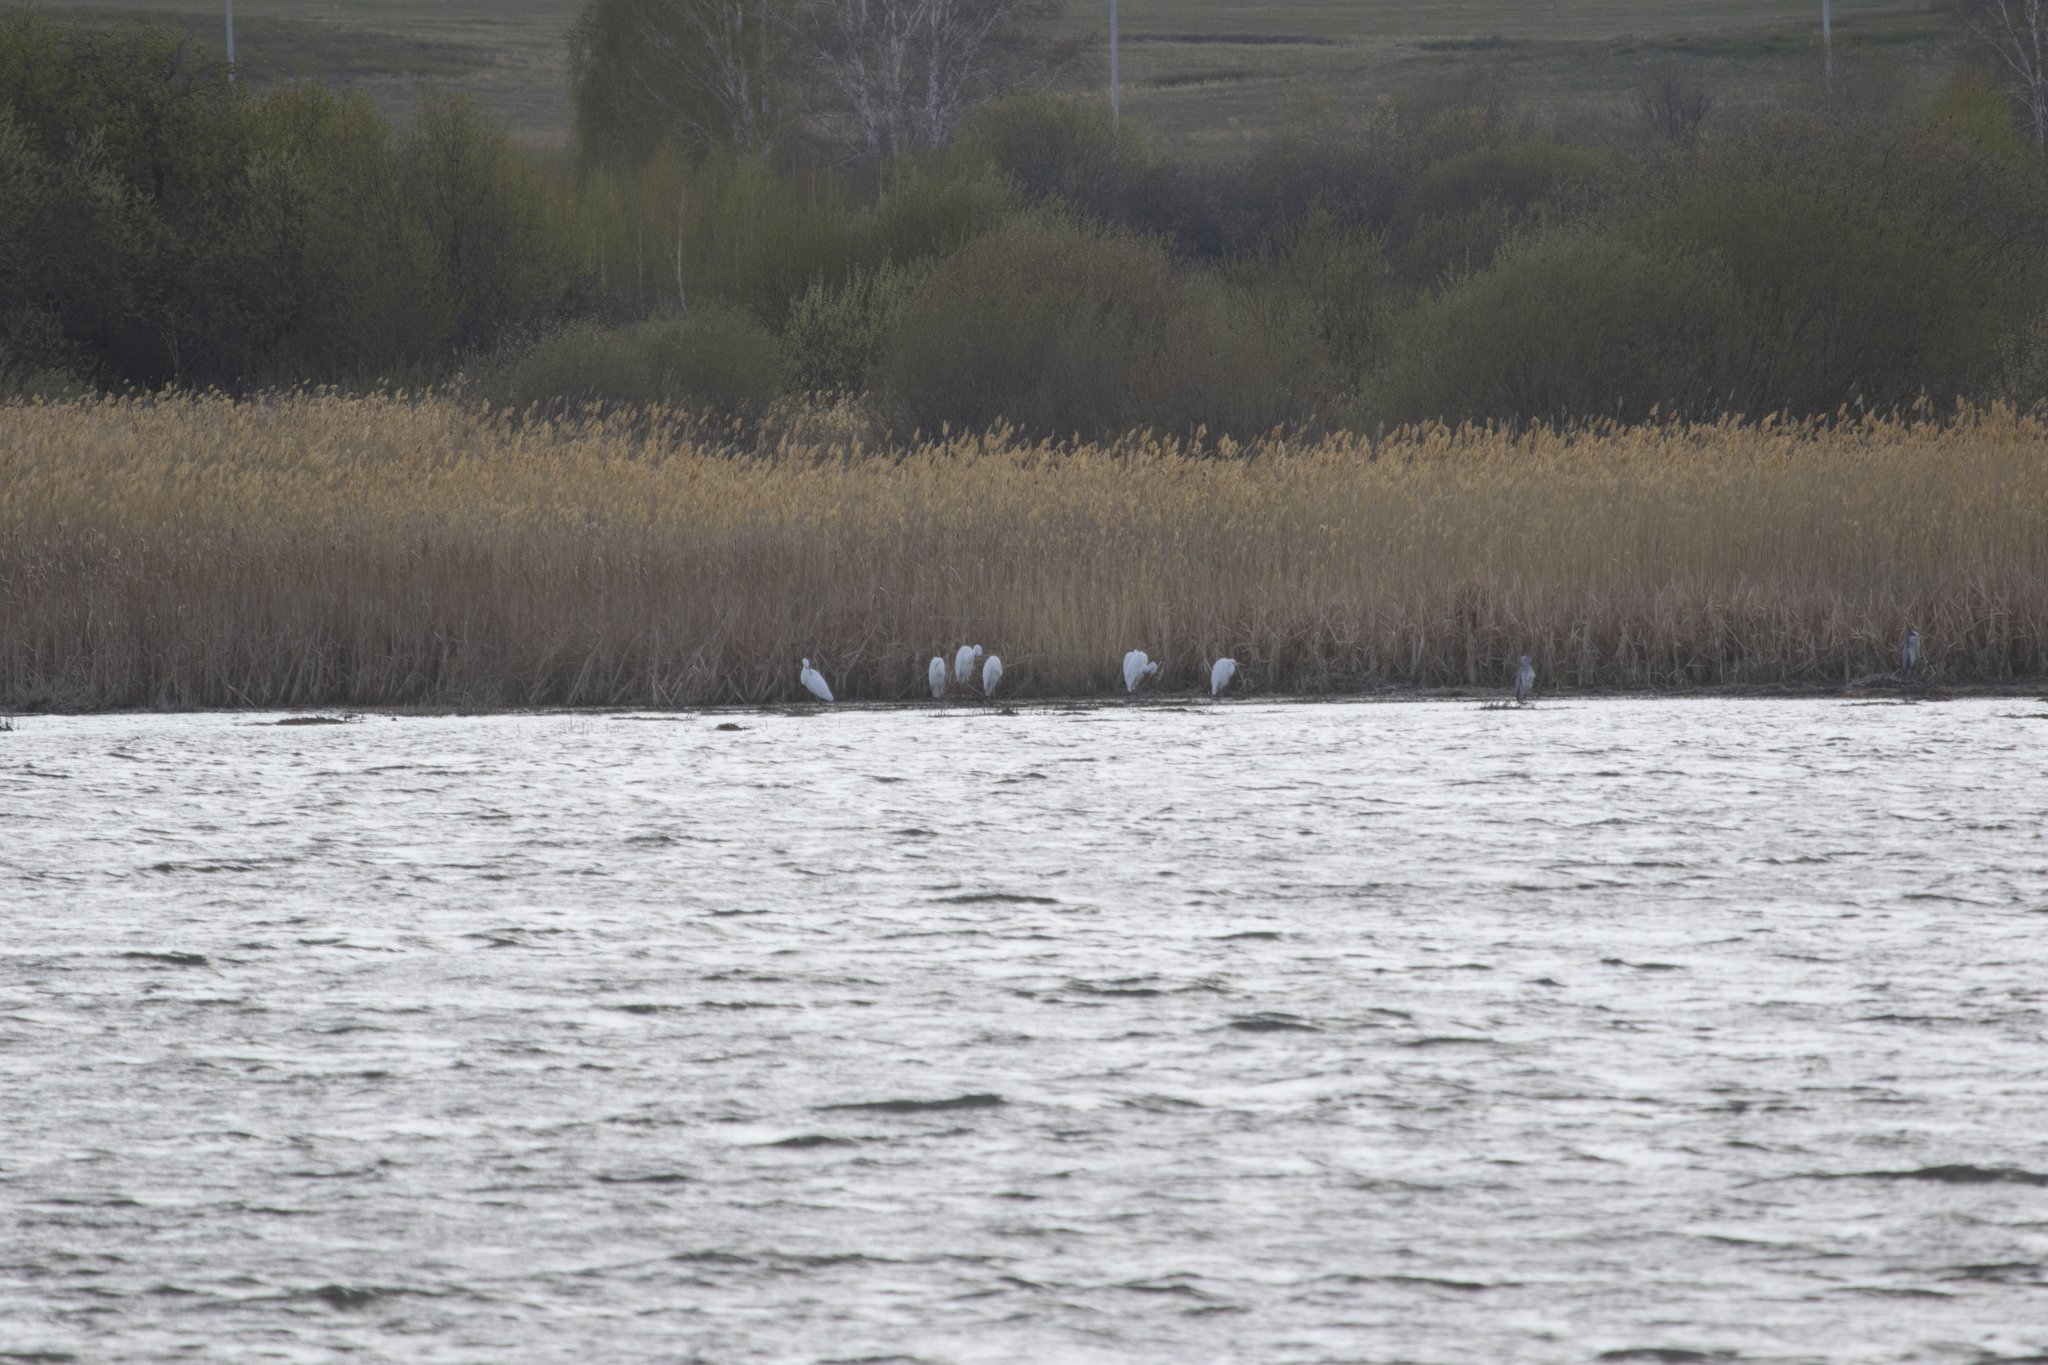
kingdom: Animalia
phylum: Chordata
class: Aves
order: Pelecaniformes
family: Ardeidae
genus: Ardea
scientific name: Ardea alba
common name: Great egret
